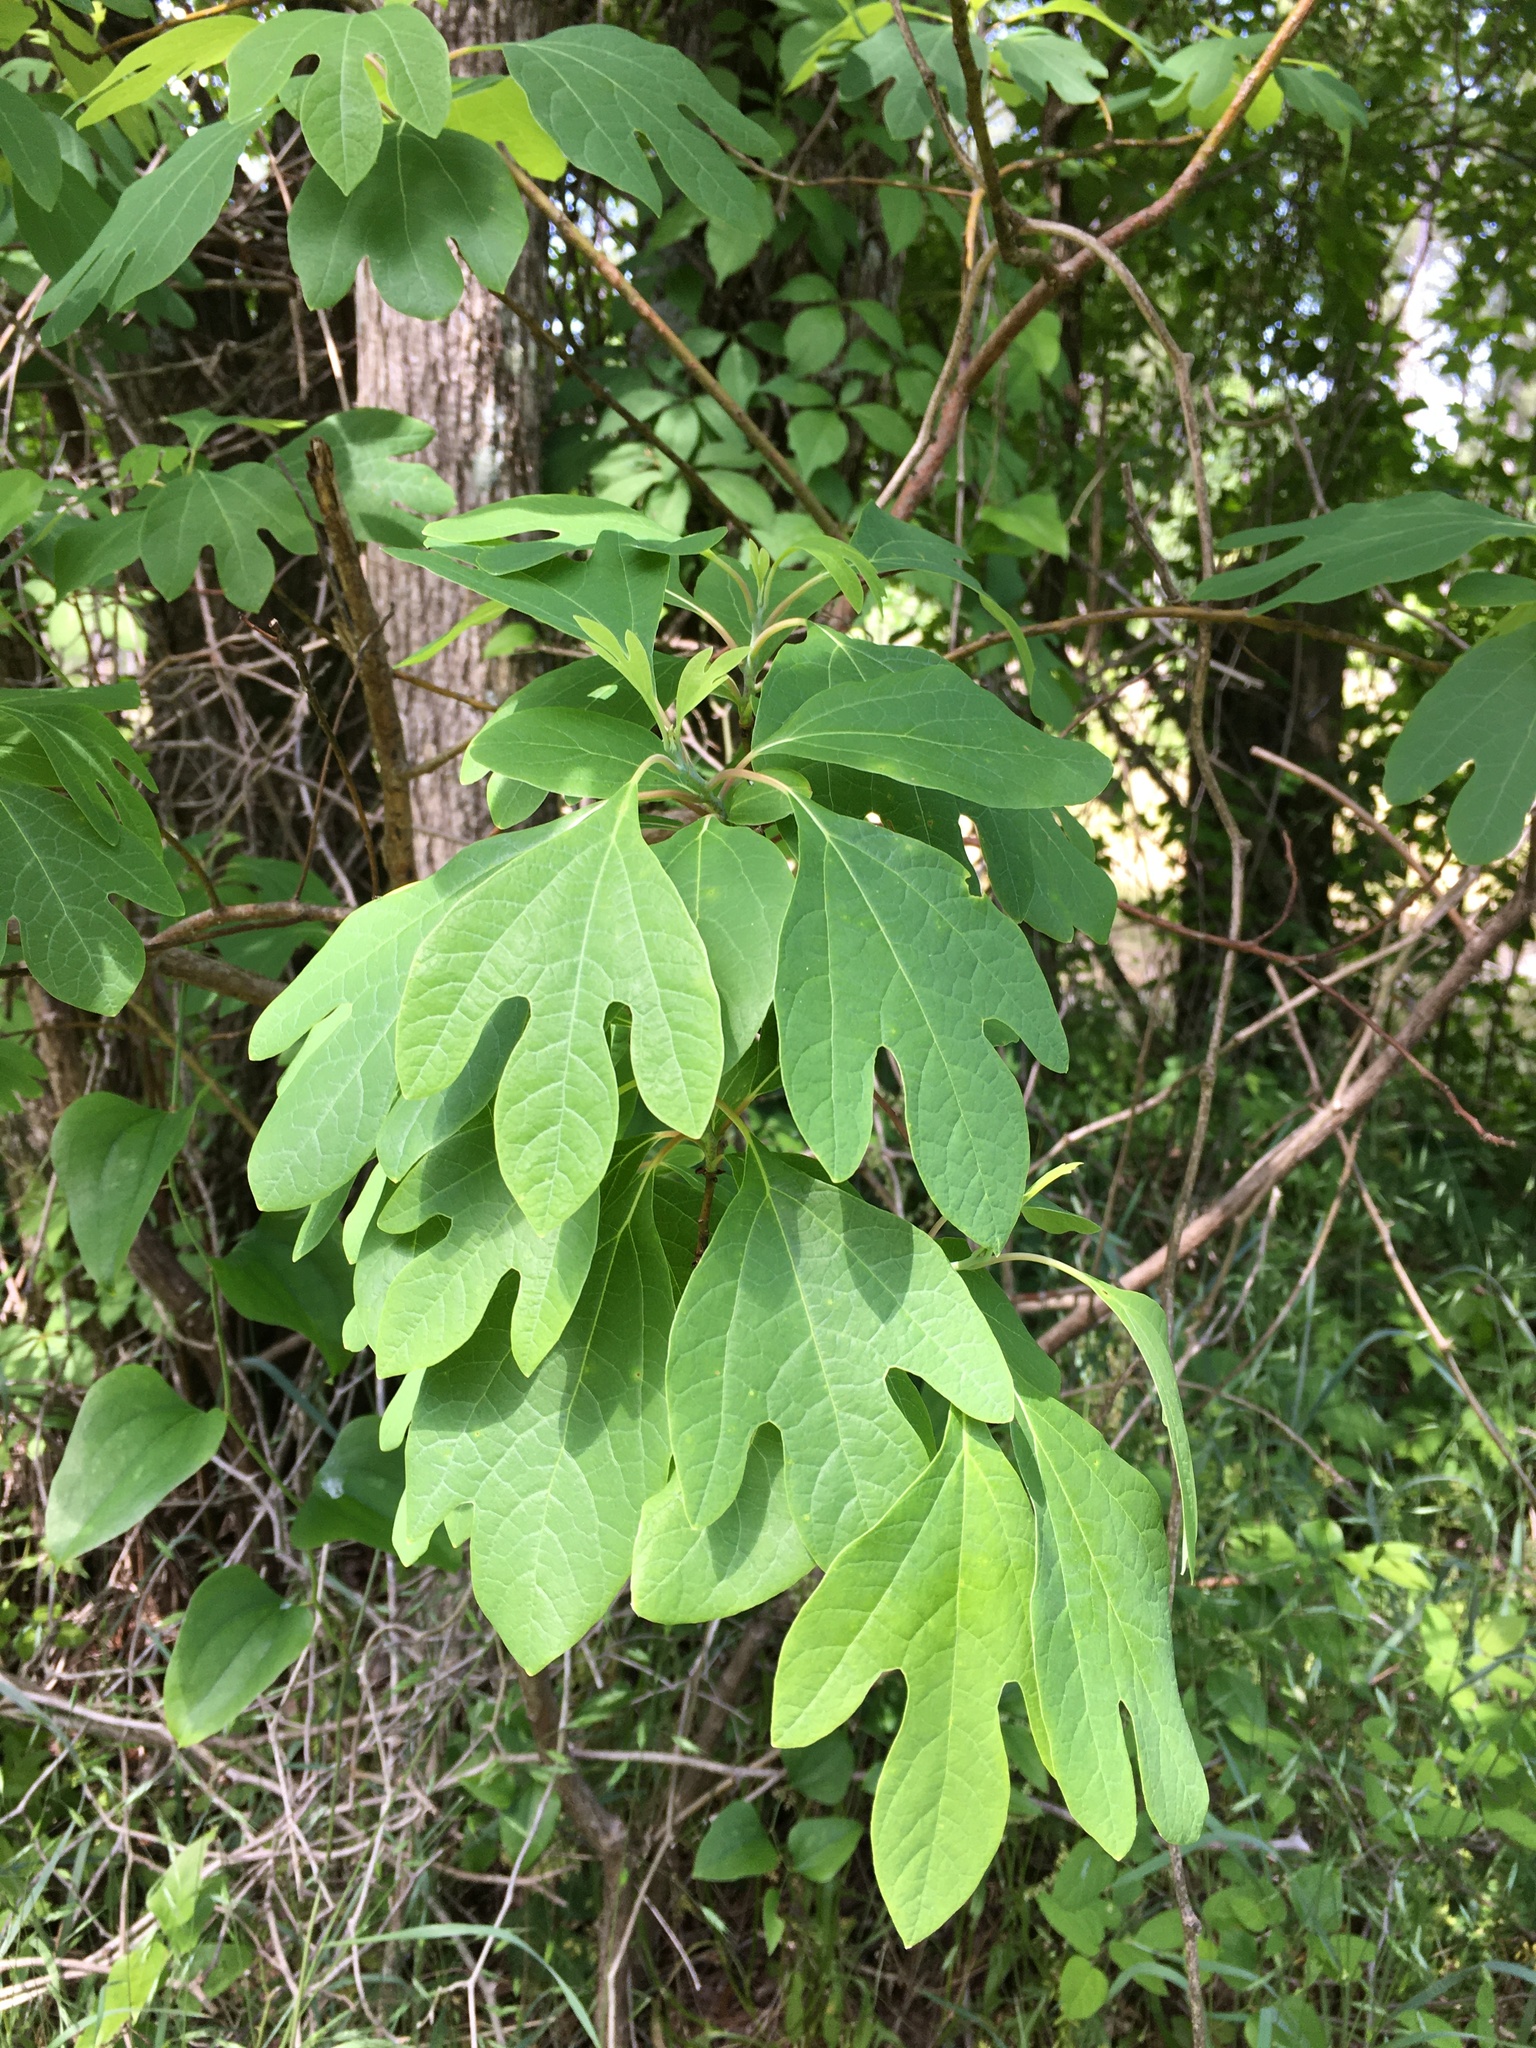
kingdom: Plantae
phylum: Tracheophyta
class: Magnoliopsida
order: Laurales
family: Lauraceae
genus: Sassafras
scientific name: Sassafras albidum
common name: Sassafras
